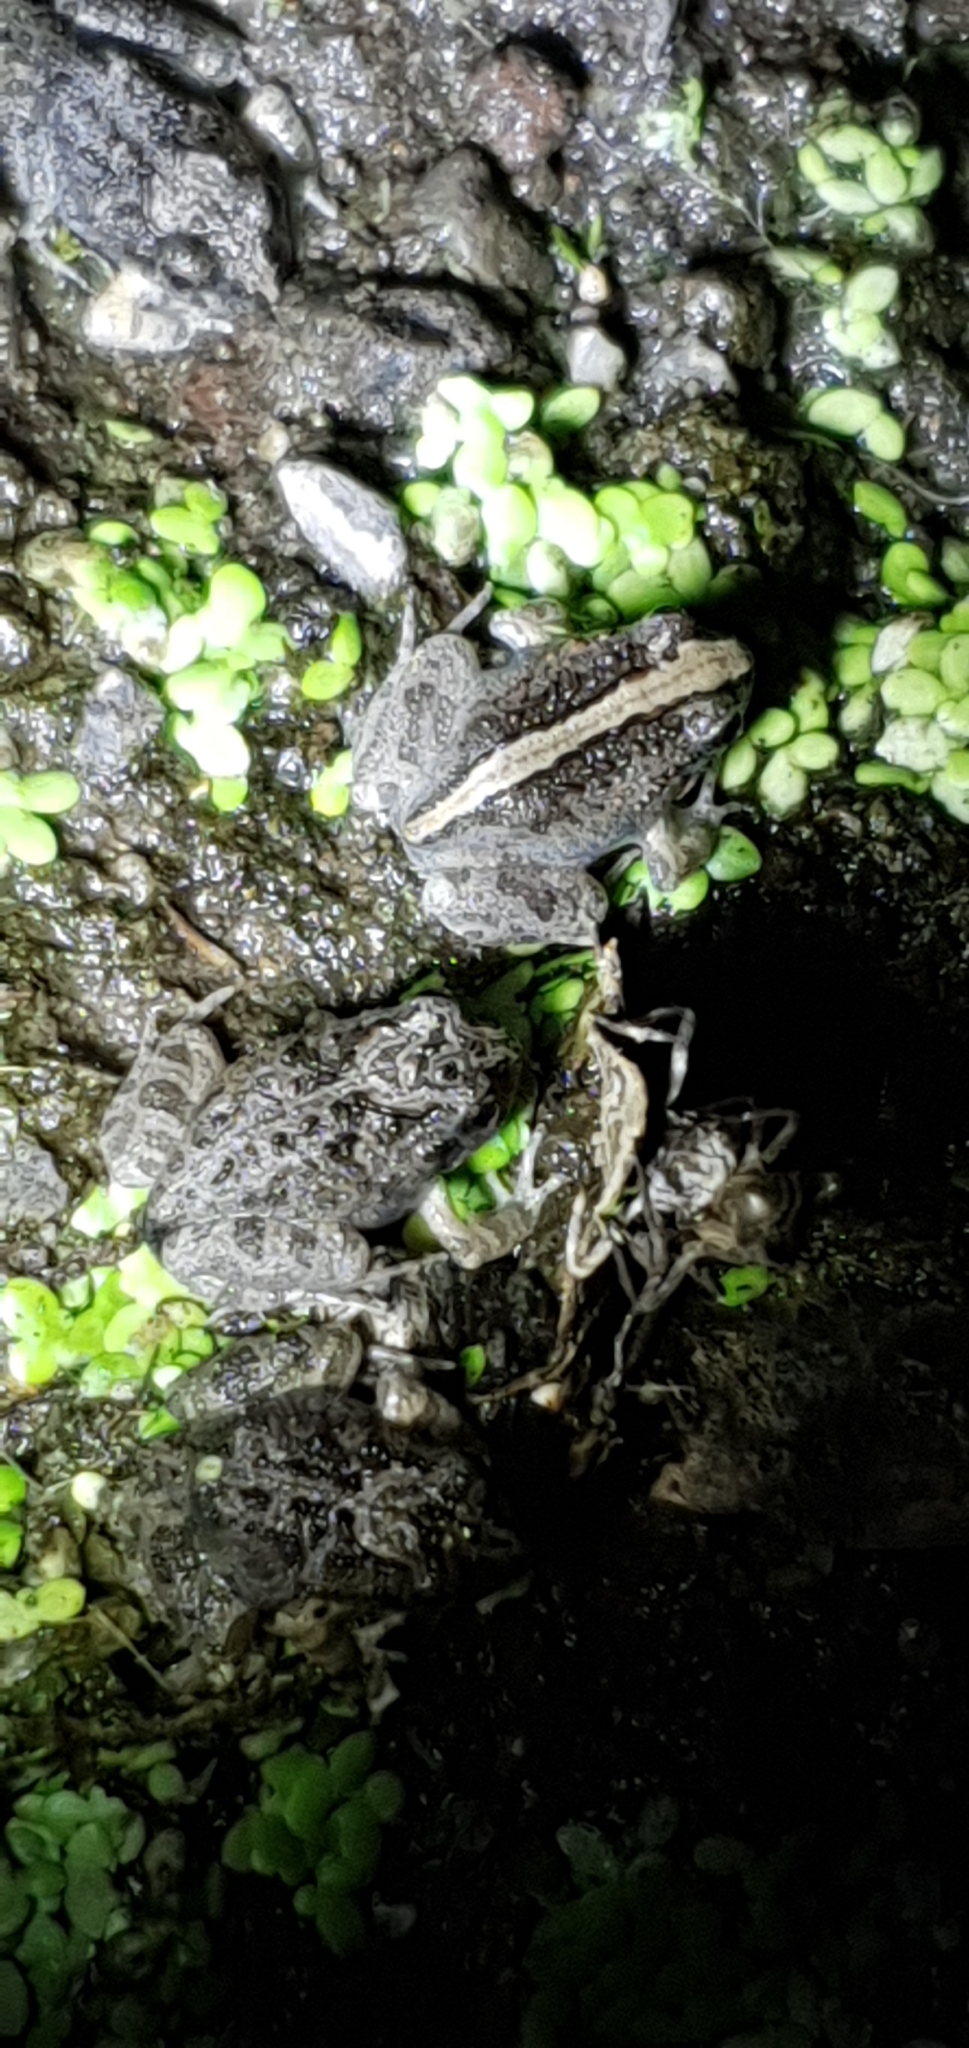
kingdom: Animalia
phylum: Chordata
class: Amphibia
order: Anura
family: Limnodynastidae
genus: Platyplectrum
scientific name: Platyplectrum ornatum
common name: Ornate burrowing frog
